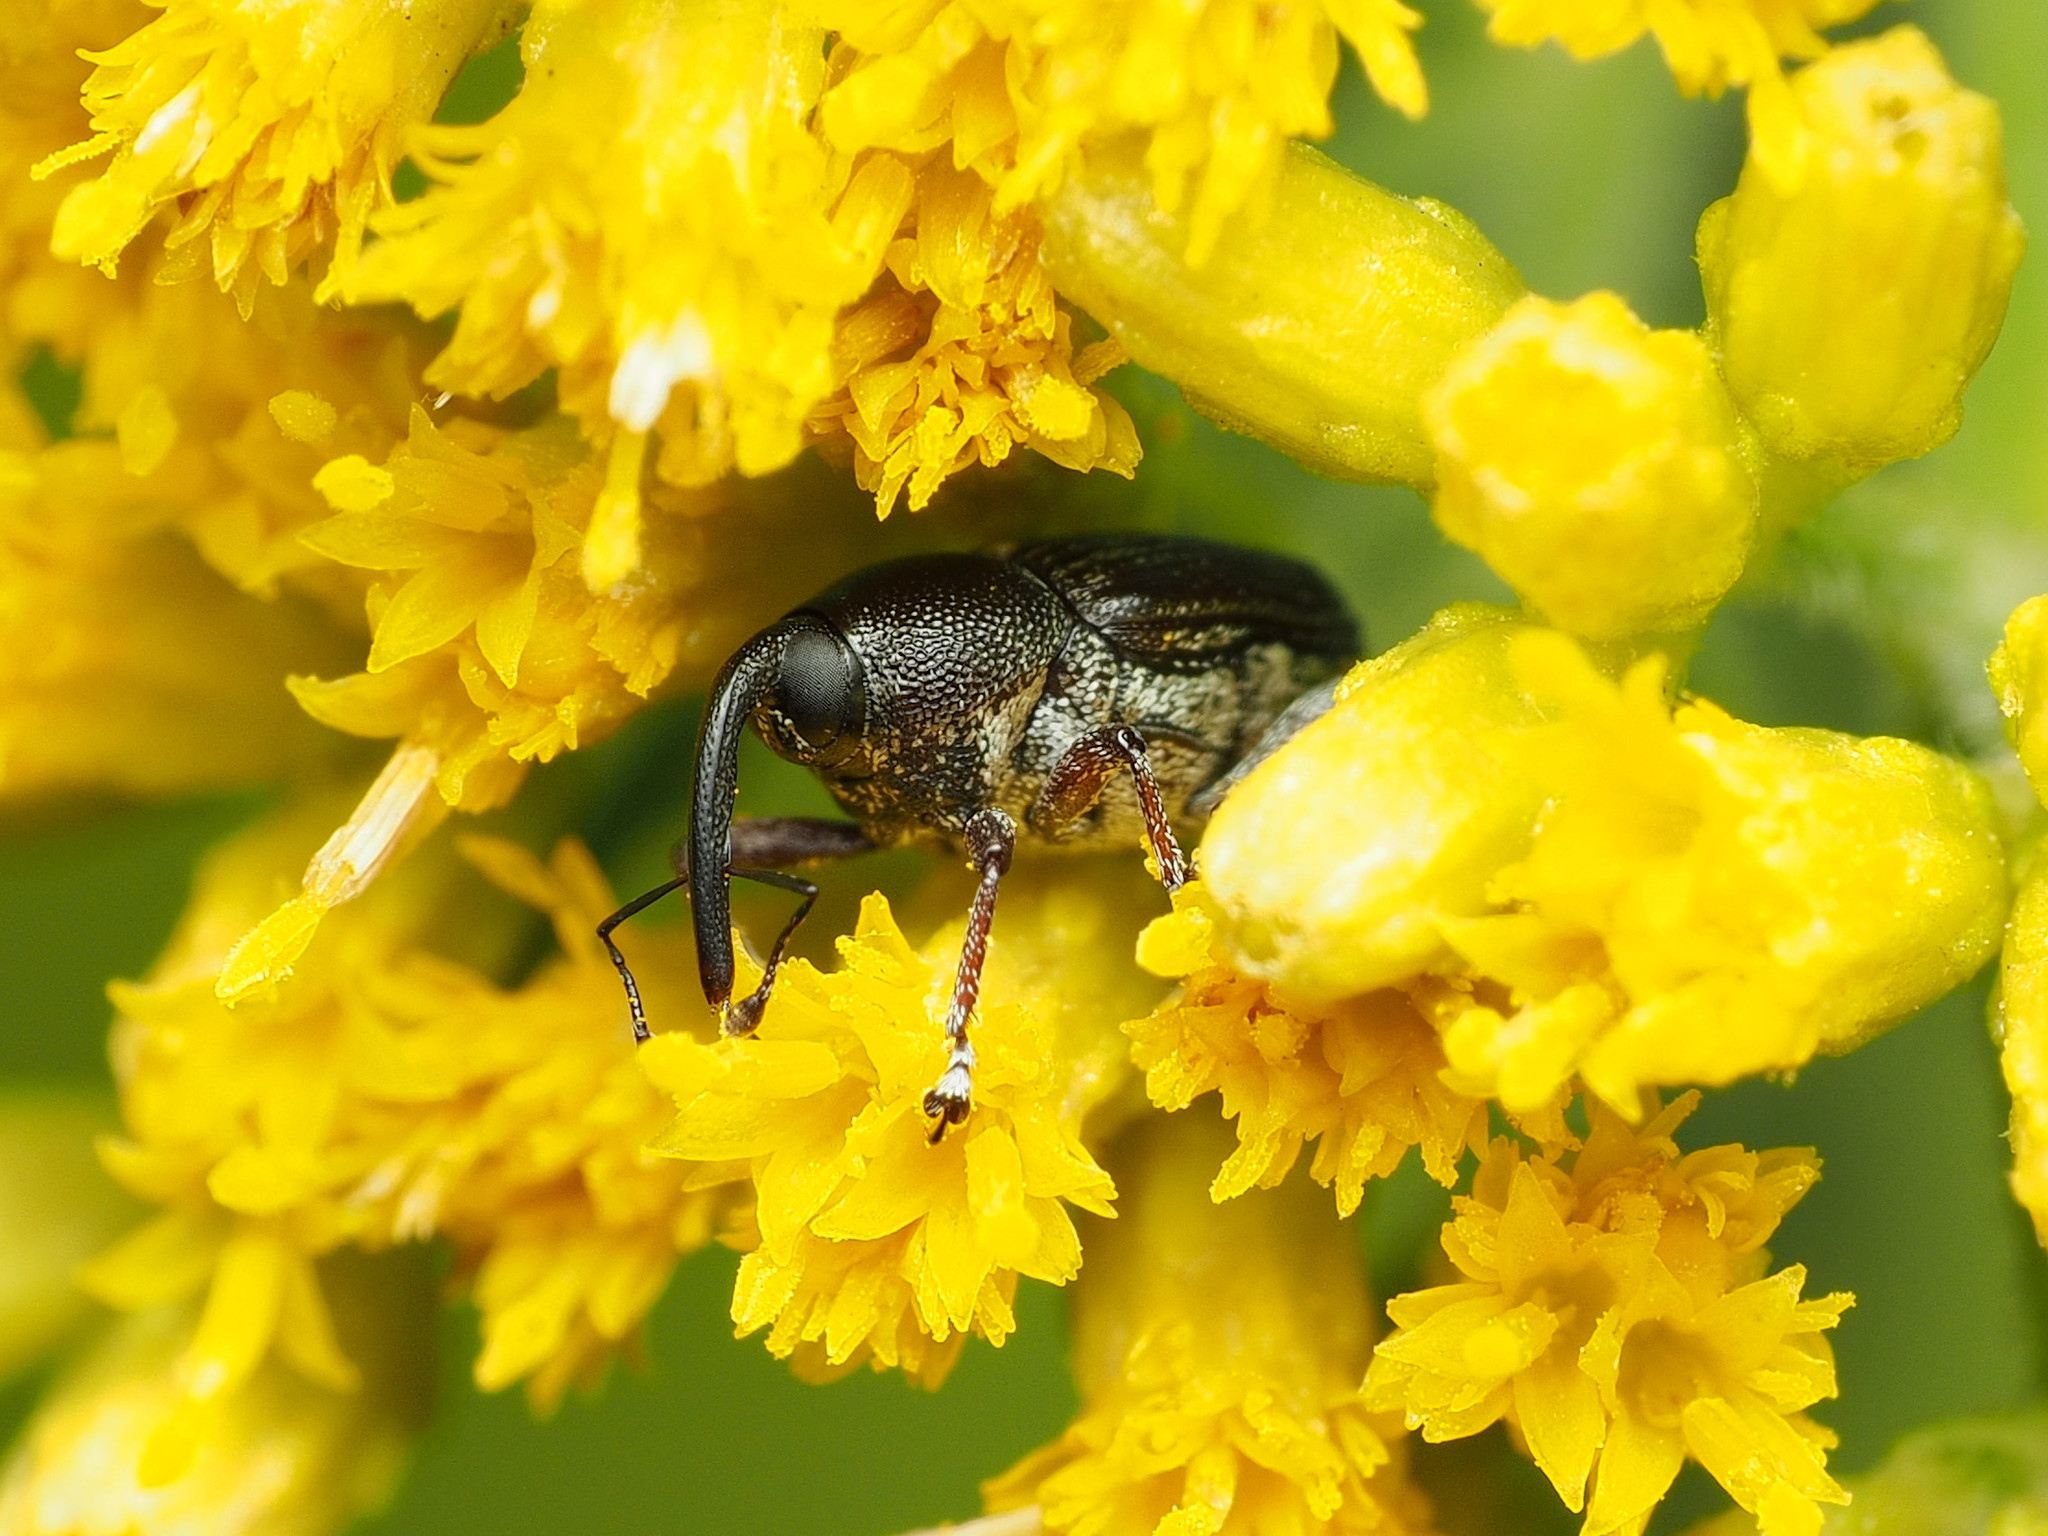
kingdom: Animalia
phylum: Arthropoda
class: Insecta
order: Coleoptera
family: Curculionidae
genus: Odontocorynus
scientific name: Odontocorynus umbellae
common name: Daisy flower weevil
